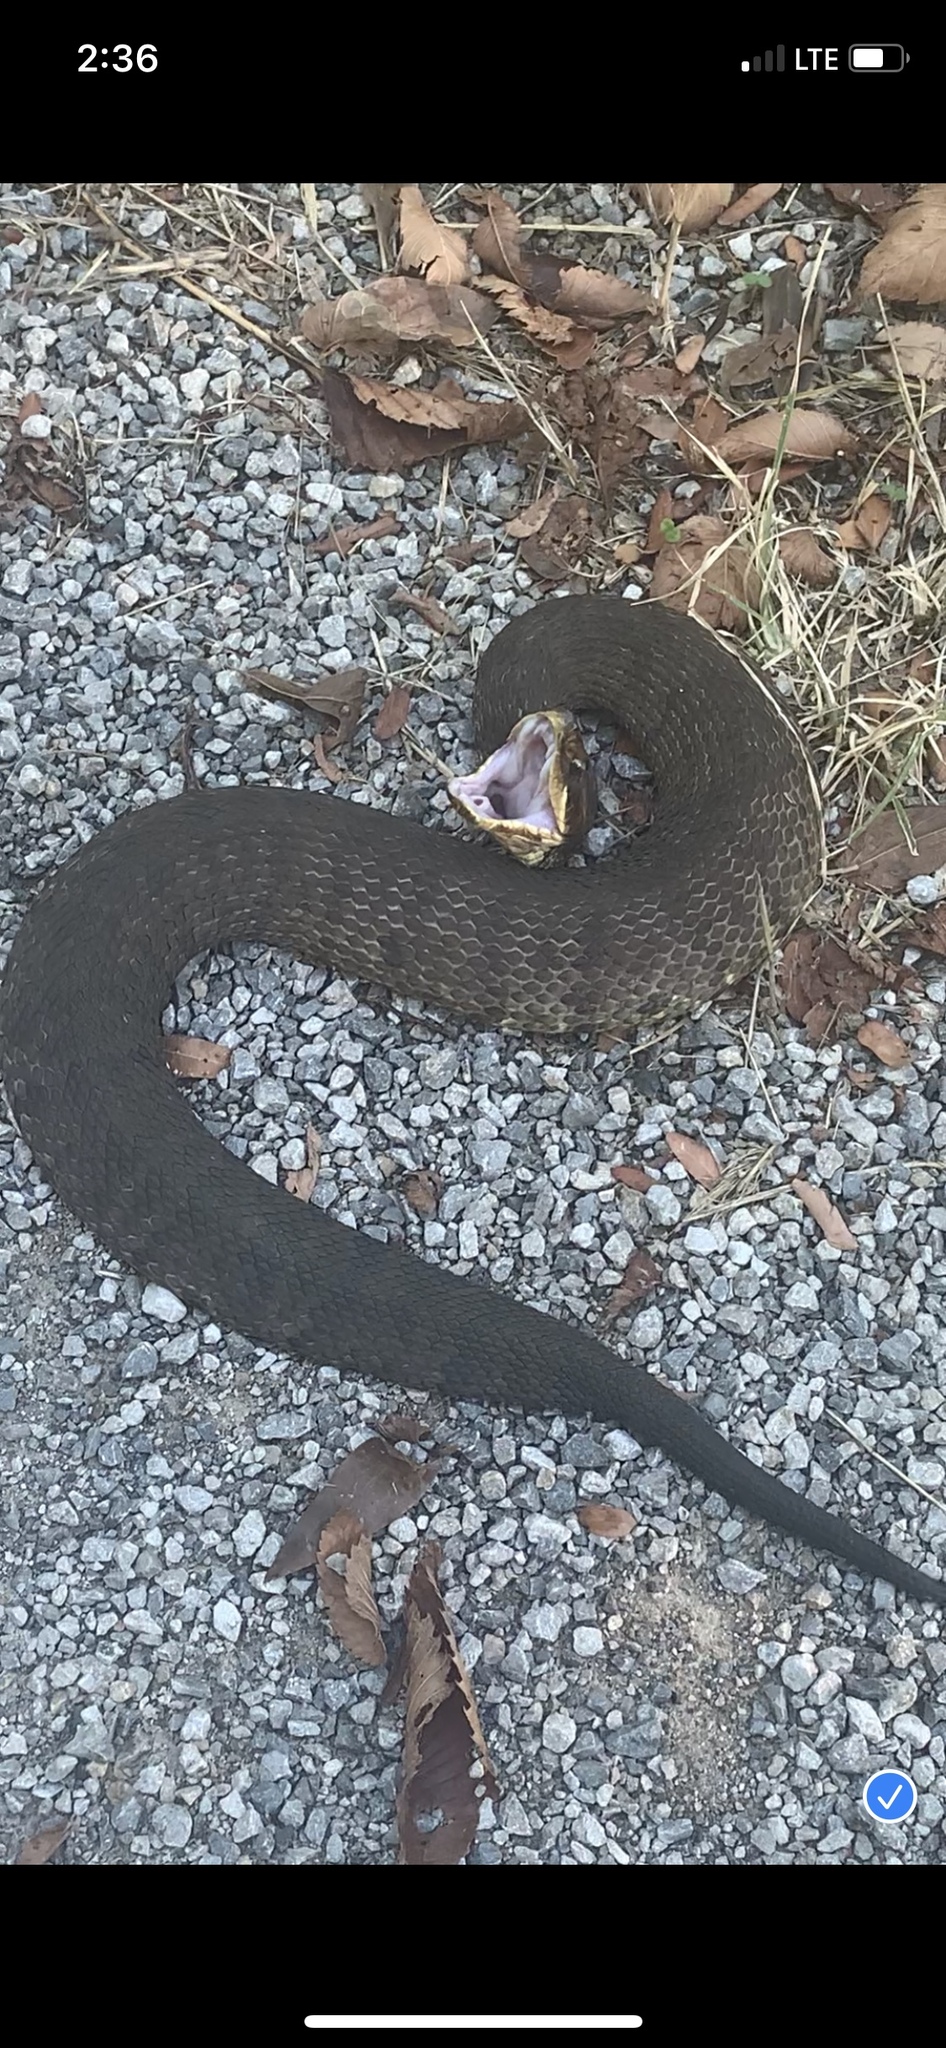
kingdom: Animalia
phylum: Chordata
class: Squamata
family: Viperidae
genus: Agkistrodon
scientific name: Agkistrodon piscivorus
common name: Cottonmouth
